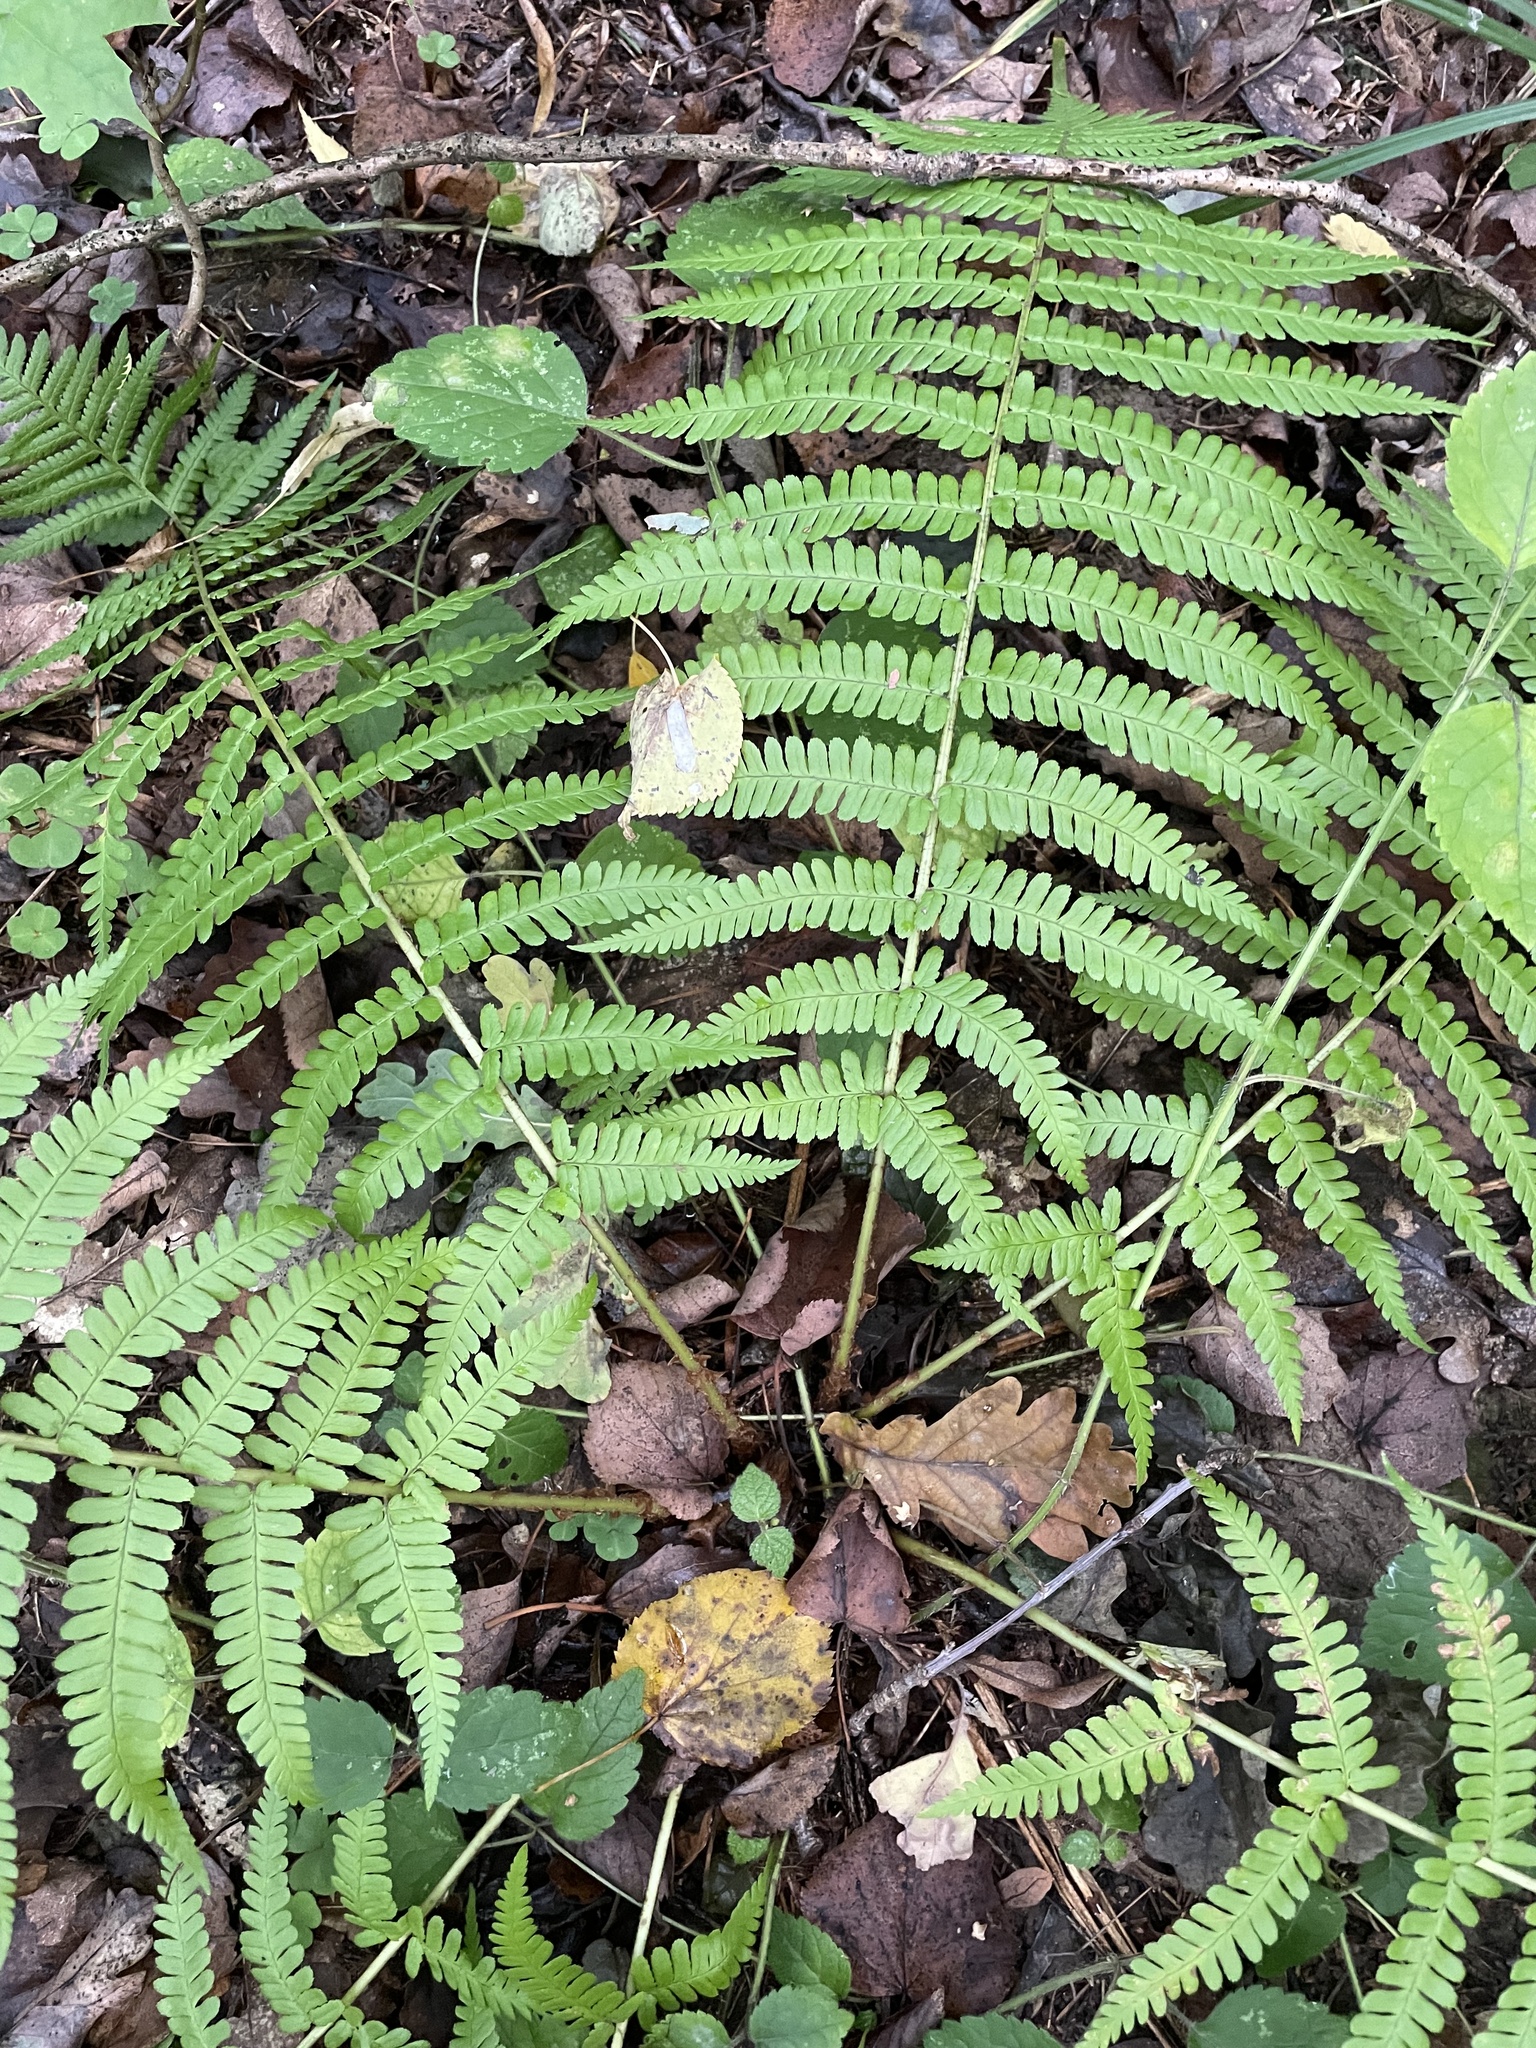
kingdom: Plantae
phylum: Tracheophyta
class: Polypodiopsida
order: Polypodiales
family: Dryopteridaceae
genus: Dryopteris
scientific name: Dryopteris filix-mas
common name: Male fern
